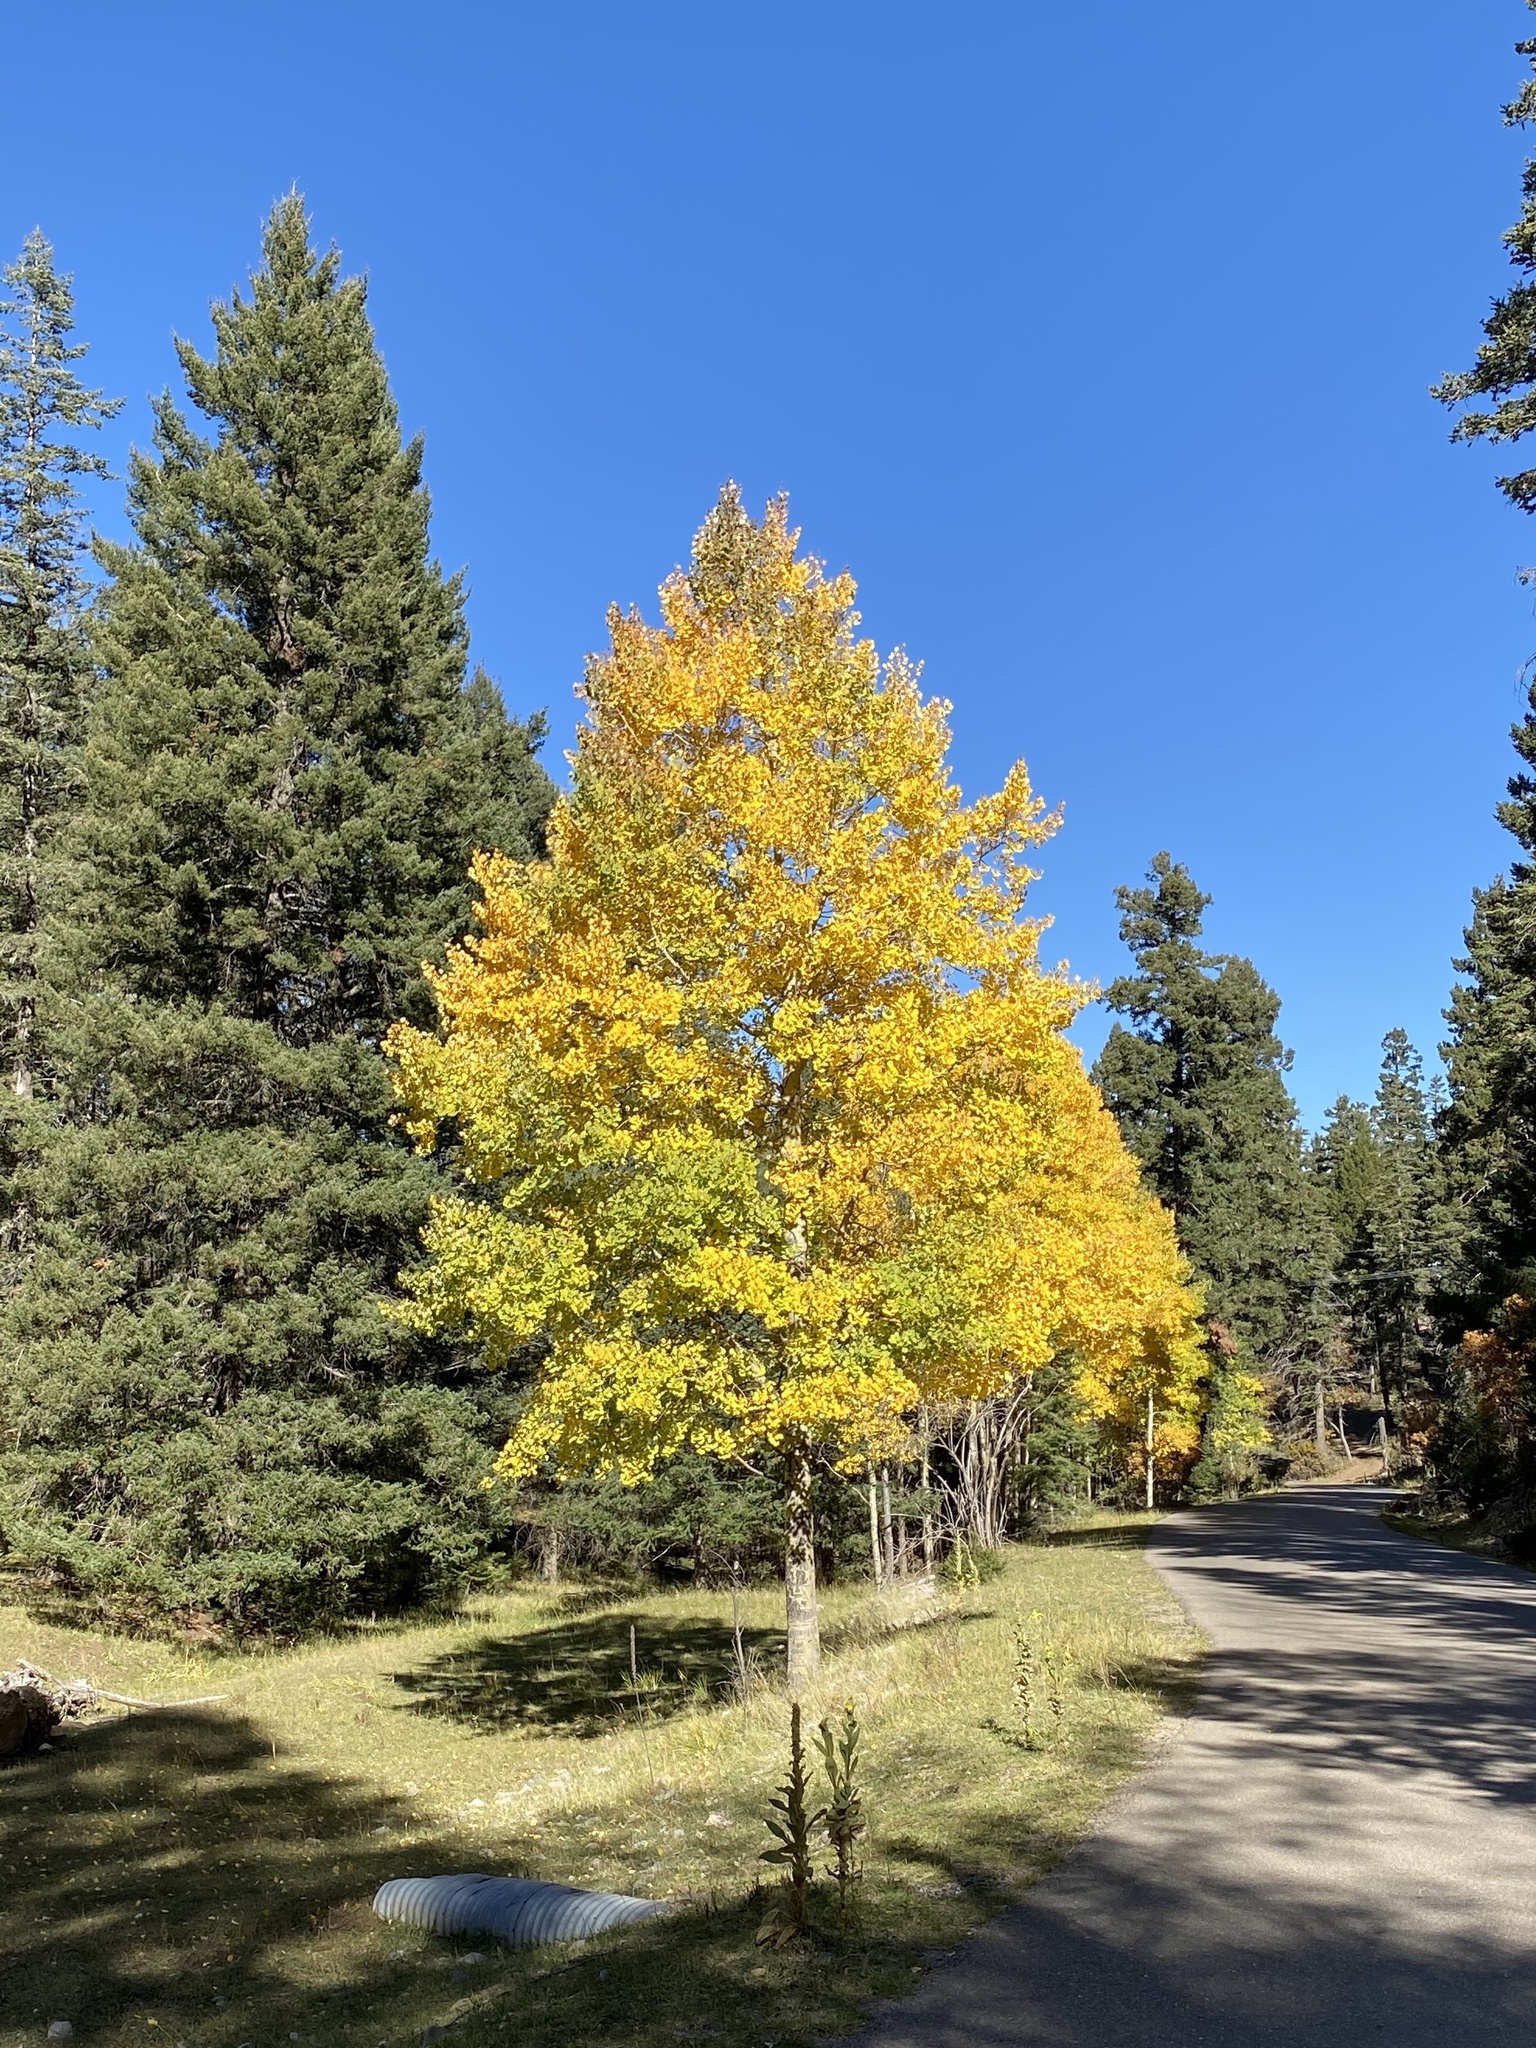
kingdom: Plantae
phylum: Tracheophyta
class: Magnoliopsida
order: Malpighiales
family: Salicaceae
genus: Populus
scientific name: Populus tremuloides
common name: Quaking aspen
